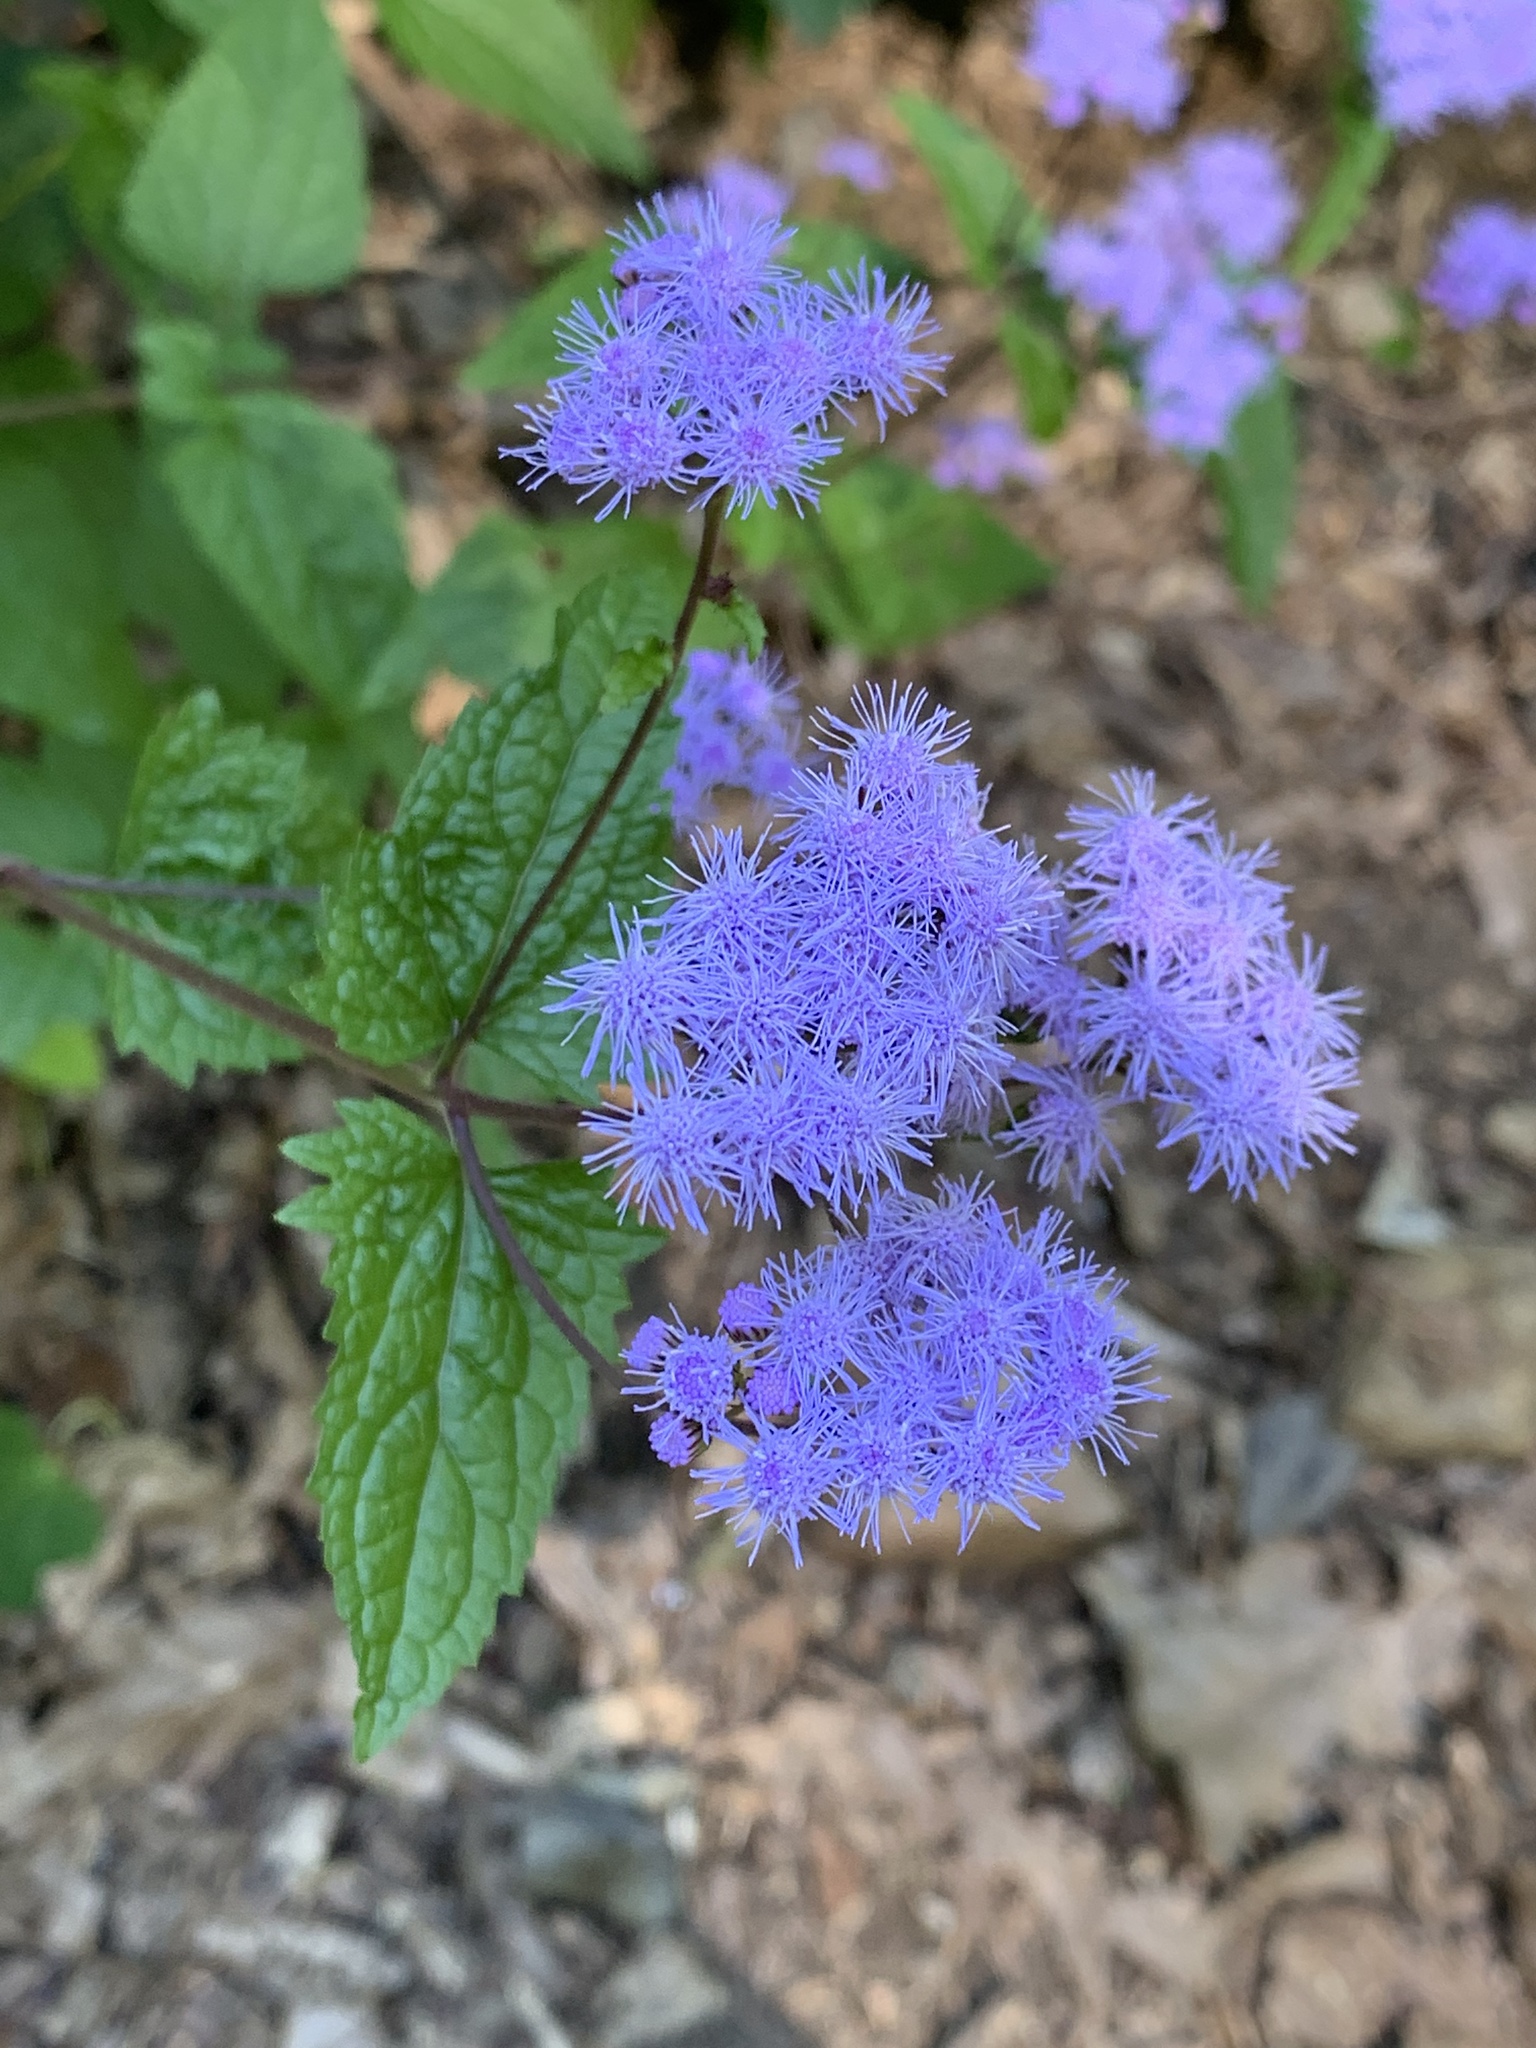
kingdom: Plantae
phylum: Tracheophyta
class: Magnoliopsida
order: Asterales
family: Asteraceae
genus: Conoclinium
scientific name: Conoclinium coelestinum
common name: Blue mistflower
